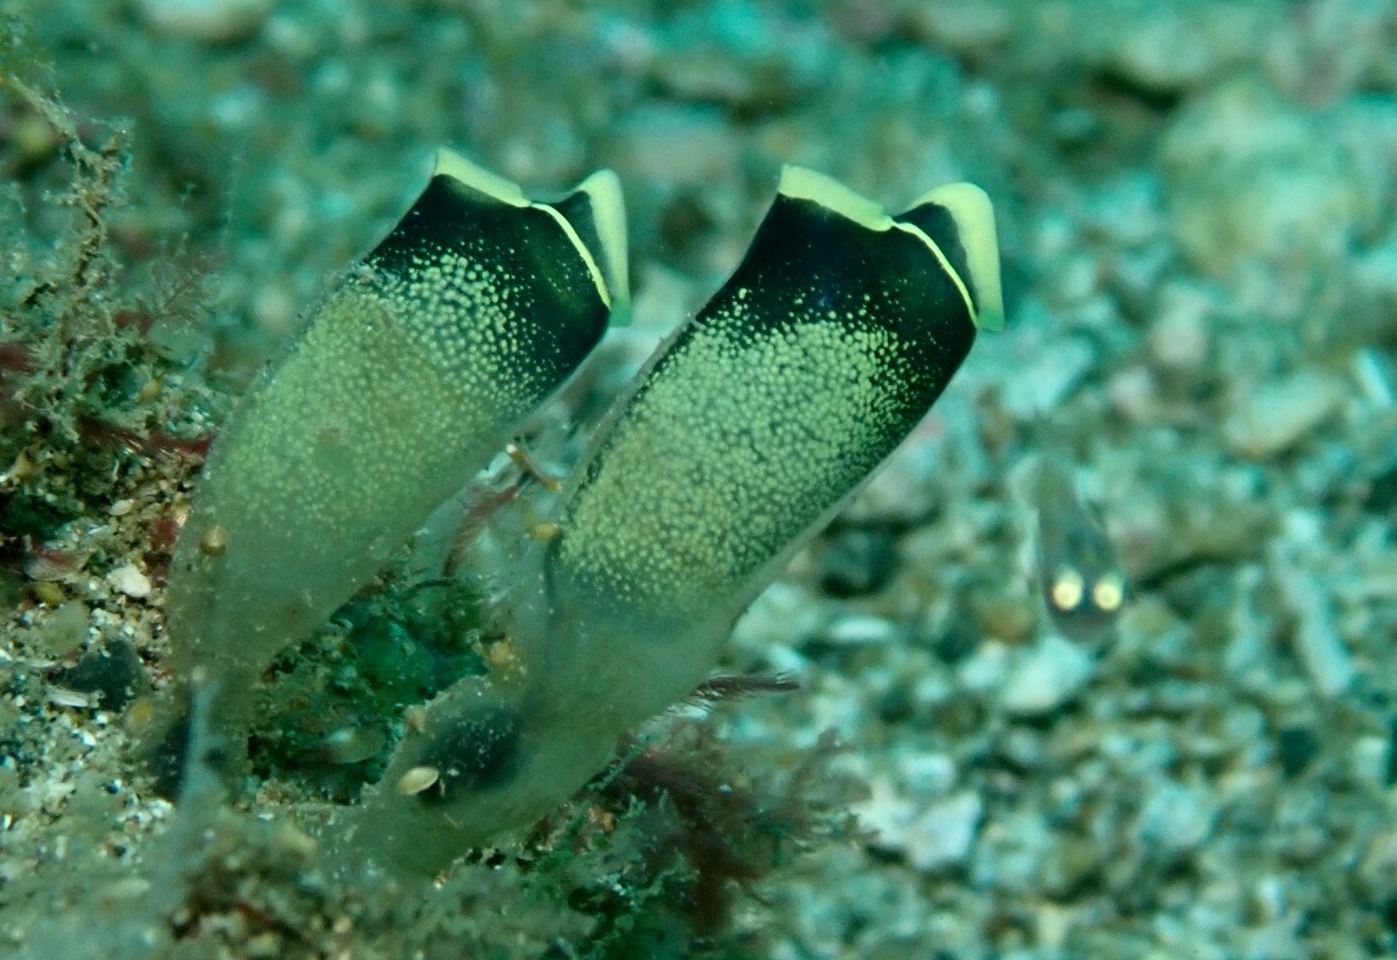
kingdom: Animalia
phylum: Chordata
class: Ascidiacea
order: Aplousobranchia
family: Clavelinidae
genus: Clavelina
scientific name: Clavelina robusta
